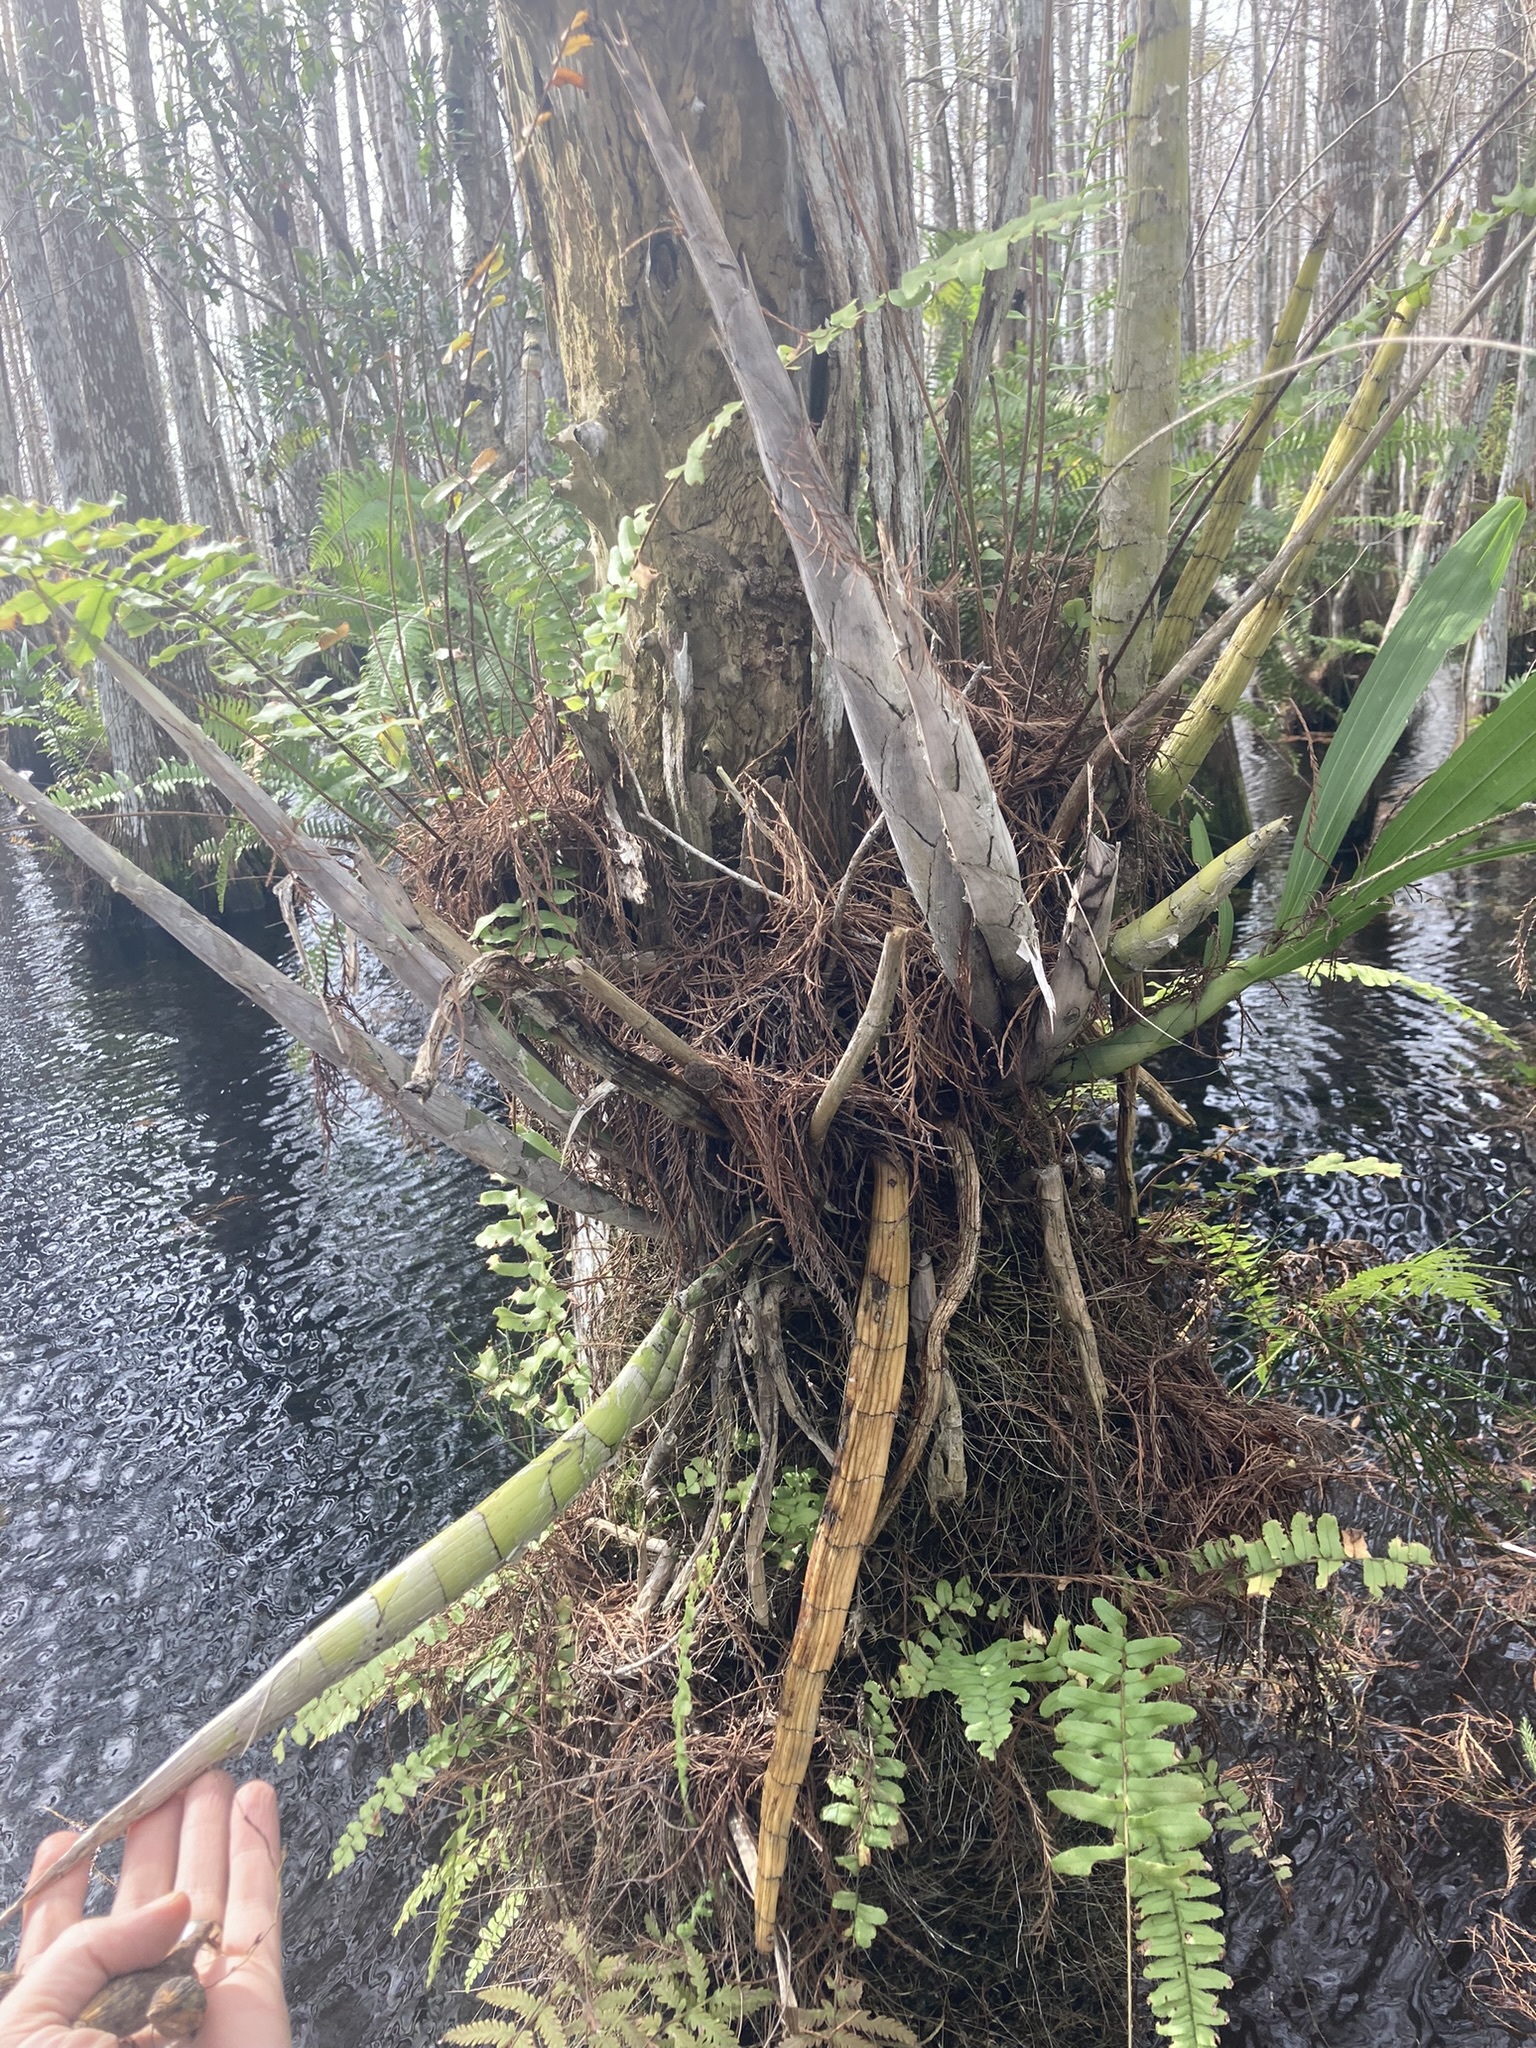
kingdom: Plantae
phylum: Tracheophyta
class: Liliopsida
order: Asparagales
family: Orchidaceae
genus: Cyrtopodium
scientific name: Cyrtopodium punctatum
